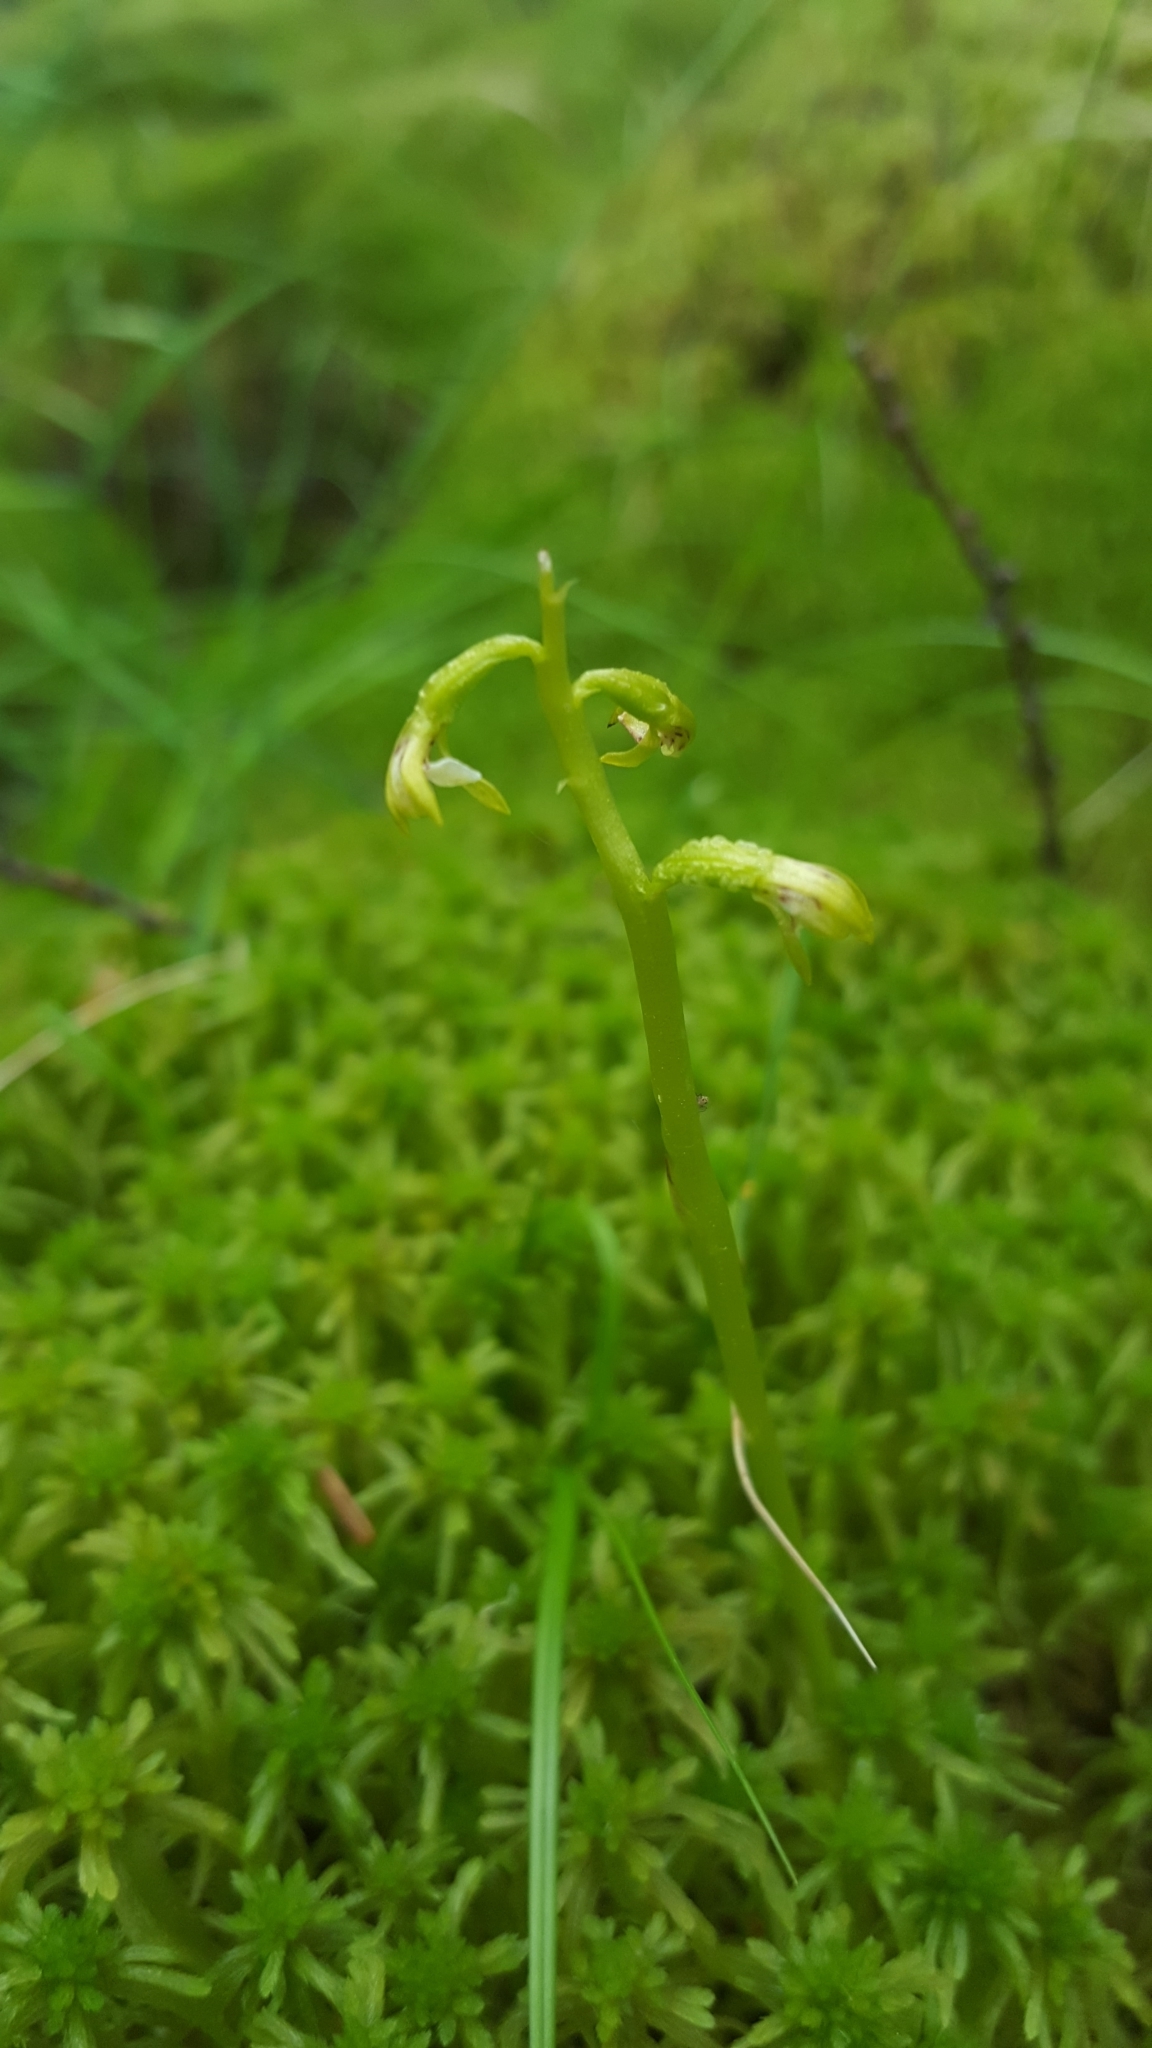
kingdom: Plantae
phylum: Tracheophyta
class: Liliopsida
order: Asparagales
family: Orchidaceae
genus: Corallorhiza
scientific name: Corallorhiza trifida
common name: Yellow coralroot
